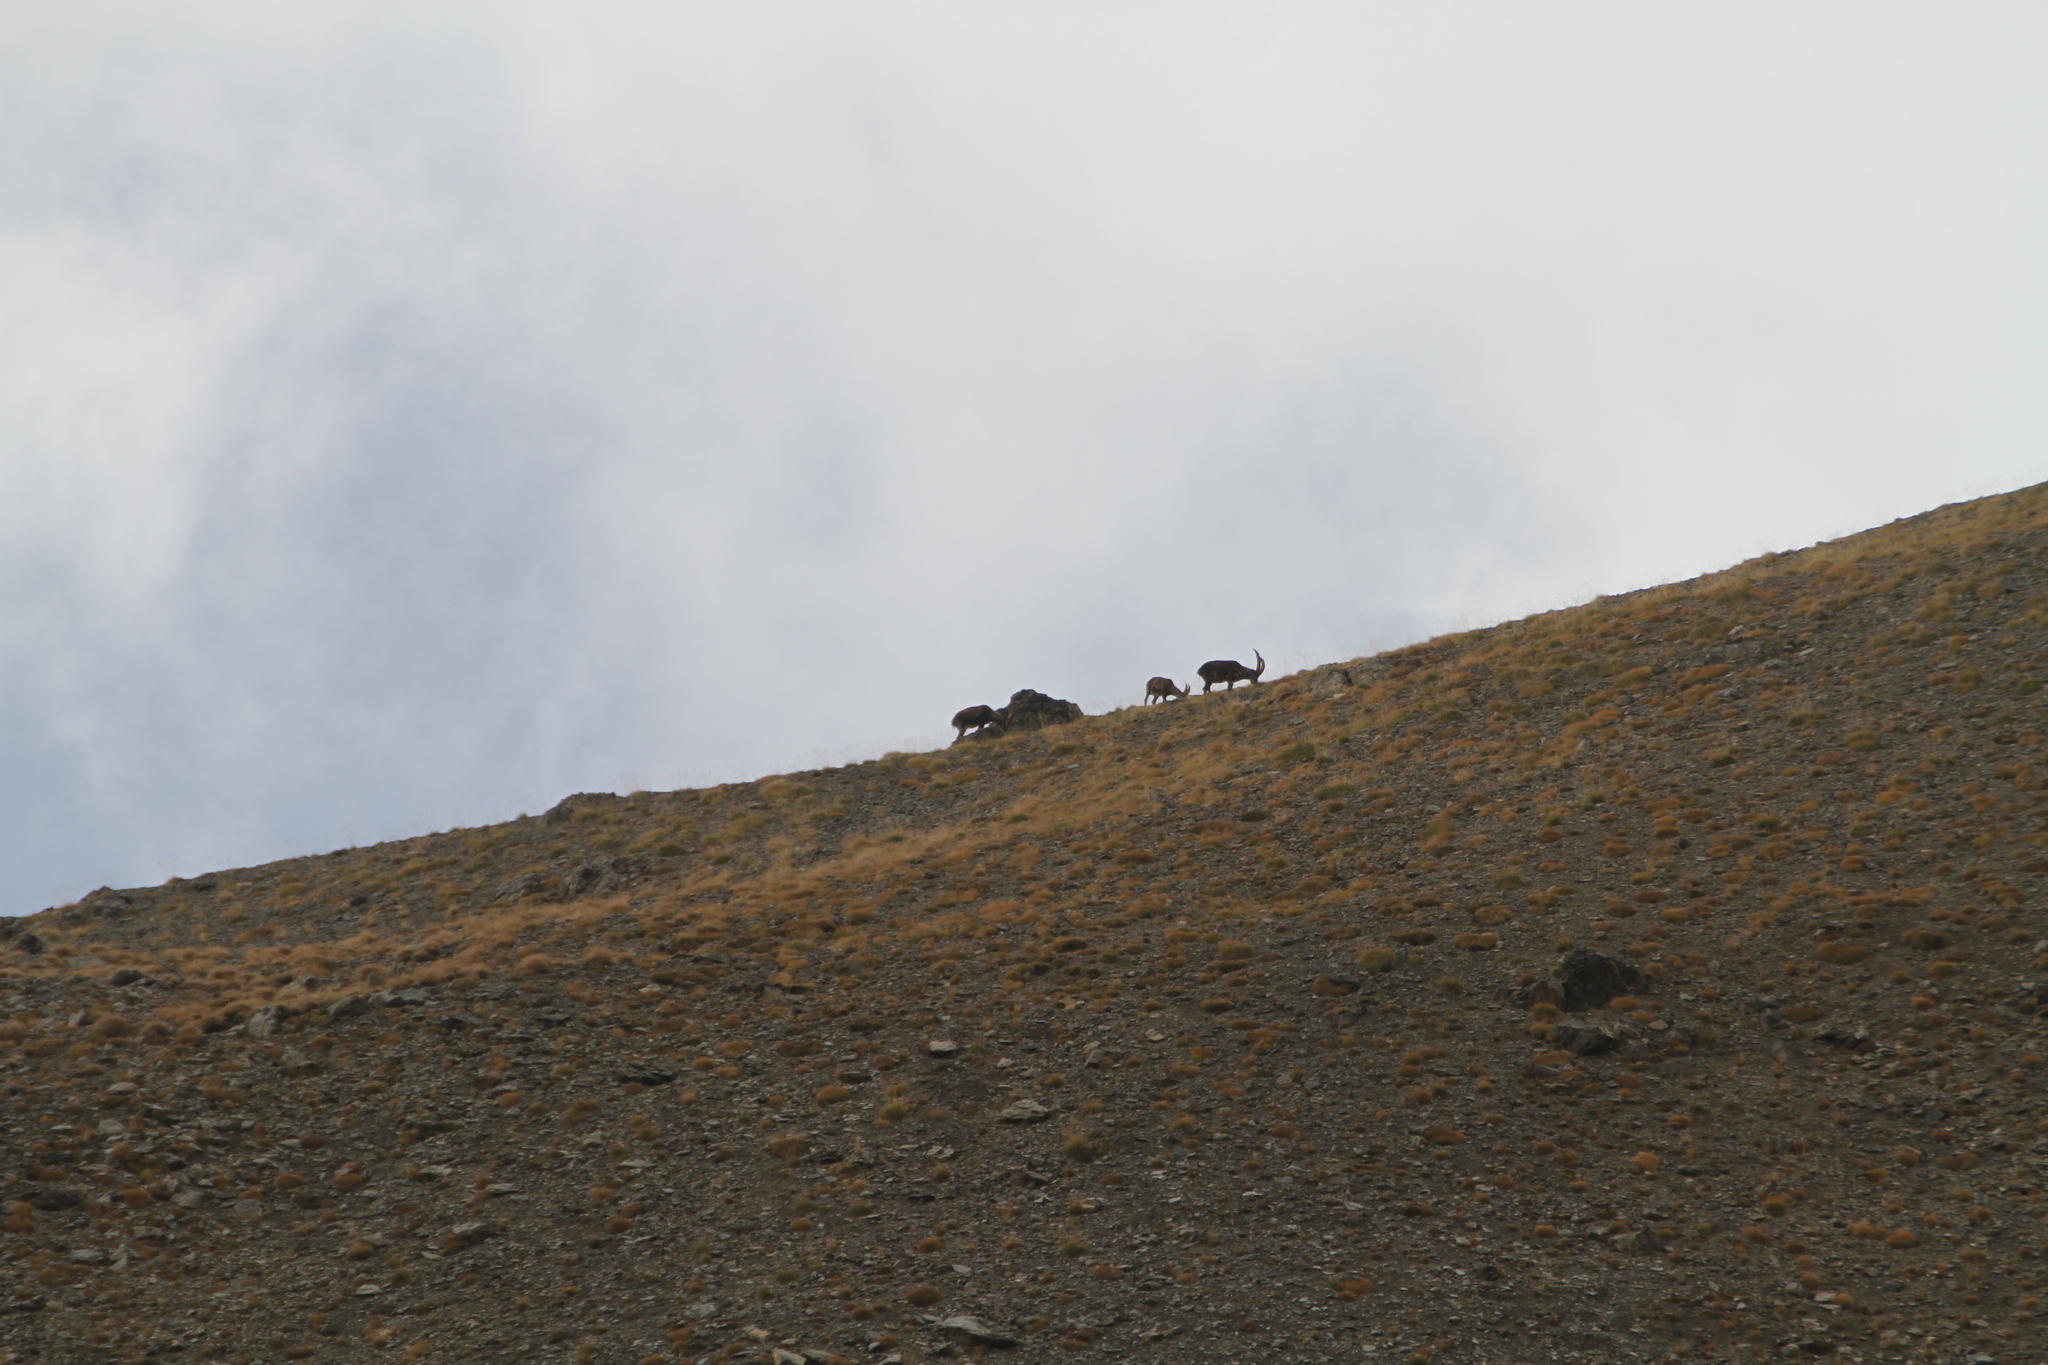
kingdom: Animalia
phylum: Chordata
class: Mammalia
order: Artiodactyla
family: Bovidae
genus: Capra
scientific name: Capra ibex
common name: Alpine ibex
